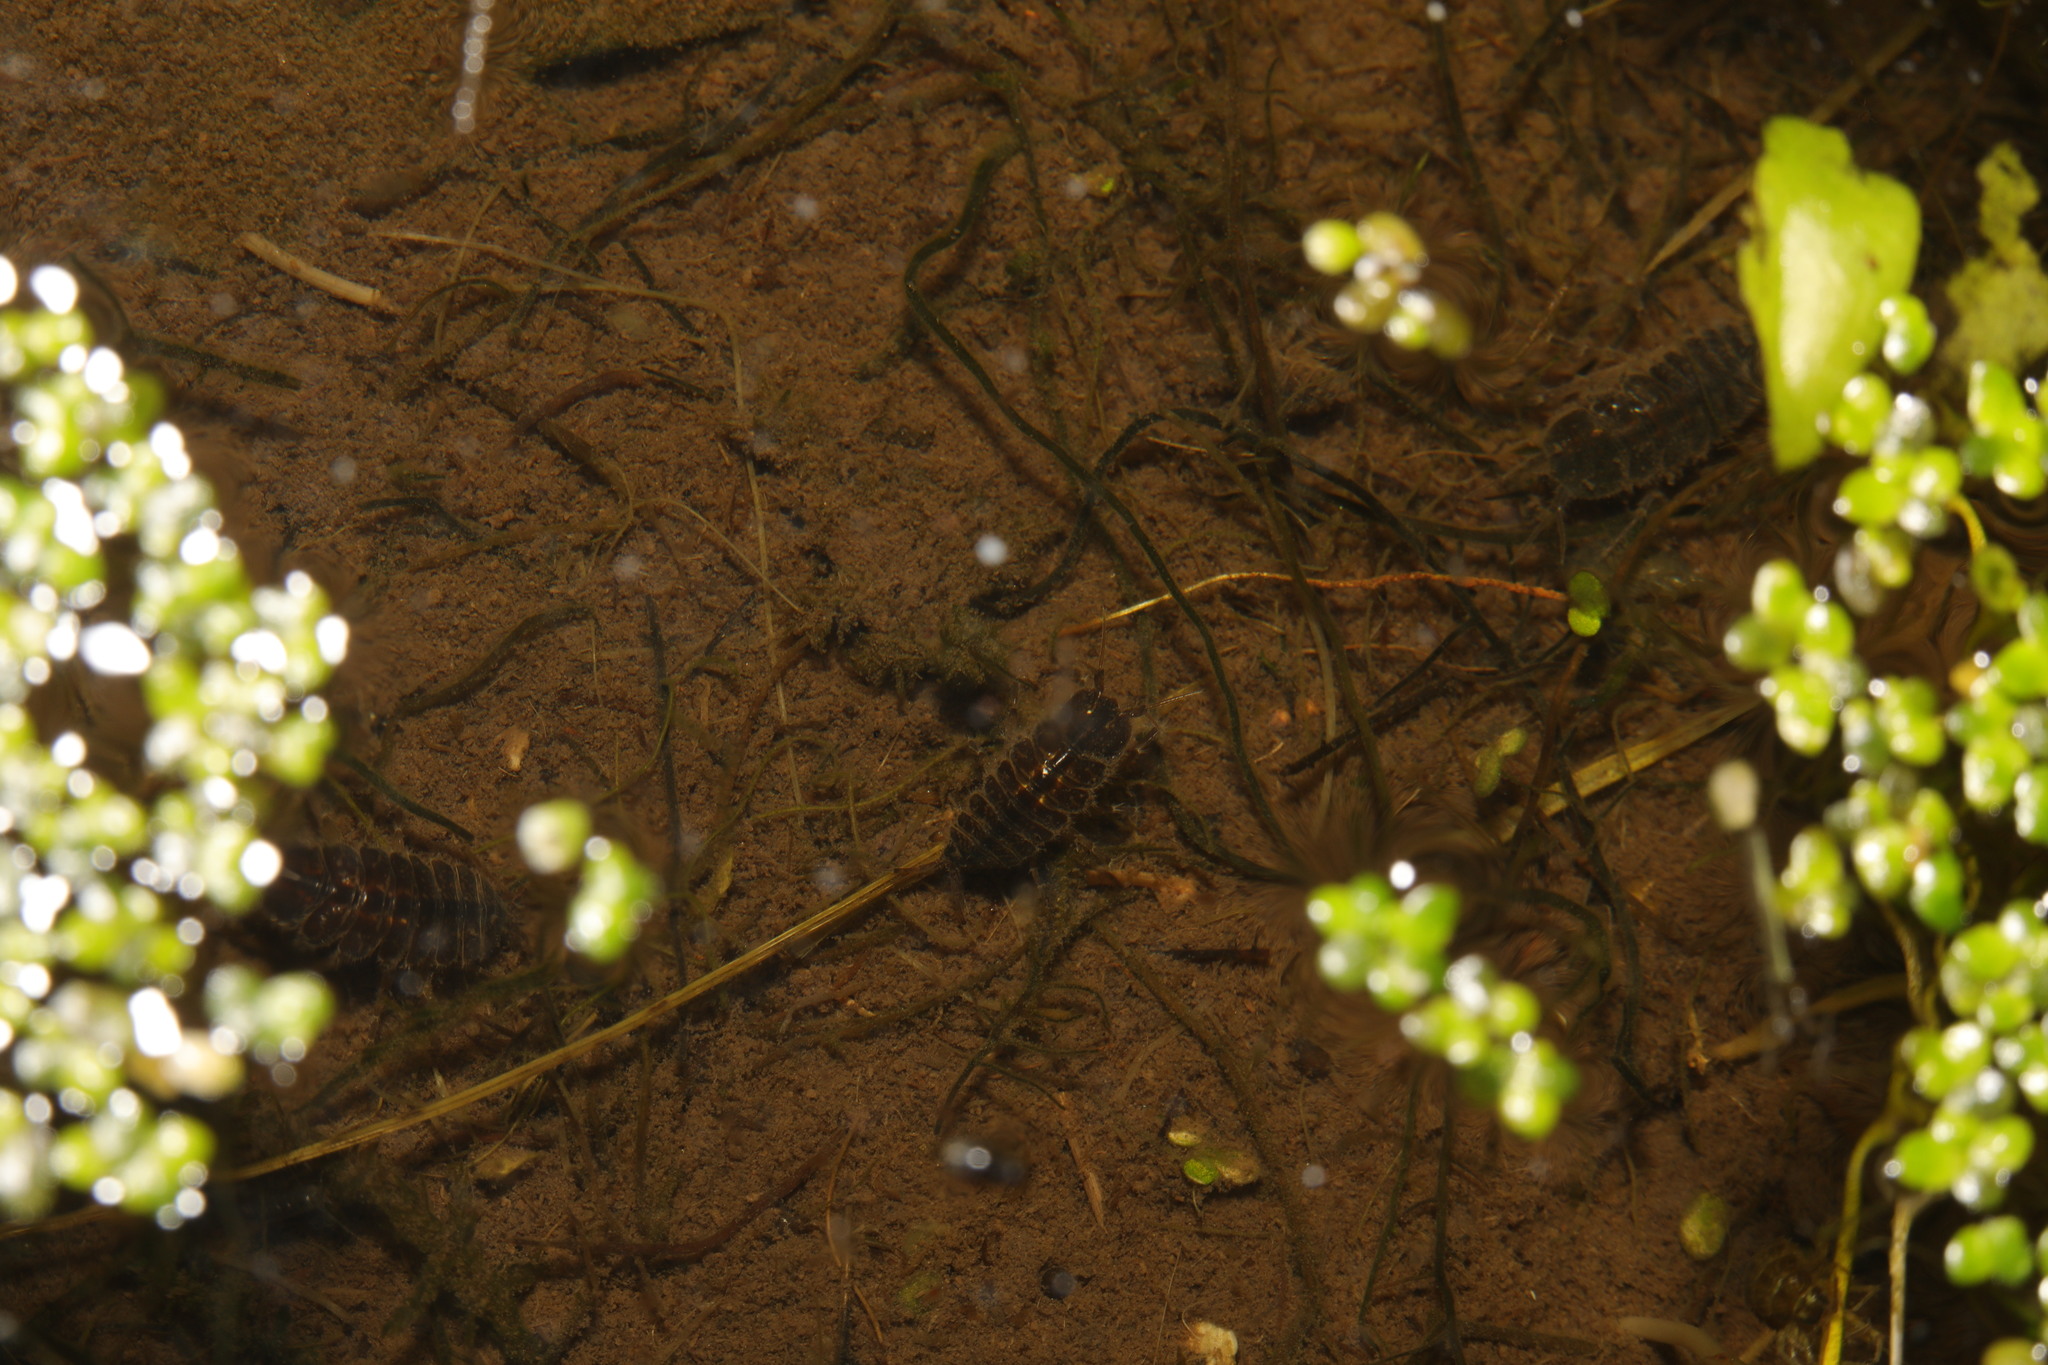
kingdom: Animalia
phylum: Arthropoda
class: Malacostraca
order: Isopoda
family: Asellidae
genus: Asellus
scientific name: Asellus aquaticus
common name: Water hog lice/slaters
